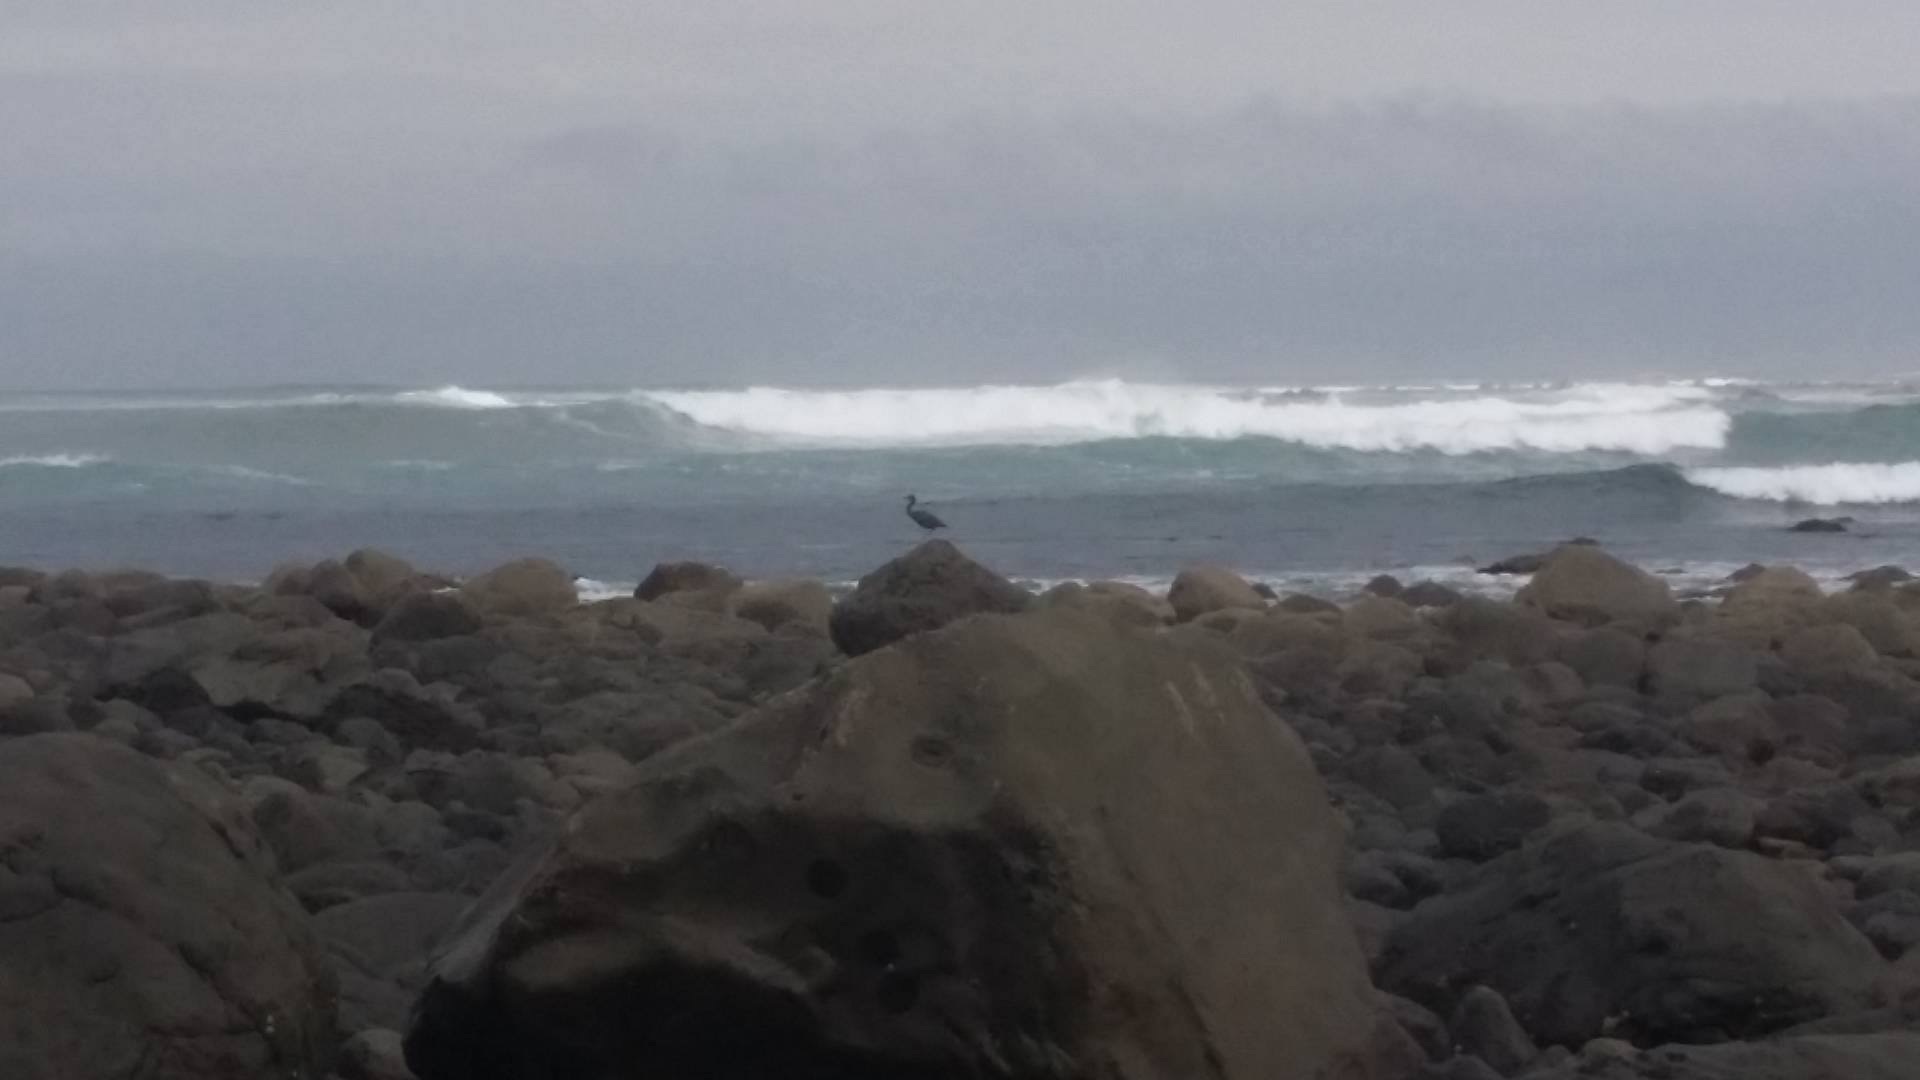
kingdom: Animalia
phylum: Chordata
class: Aves
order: Pelecaniformes
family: Ardeidae
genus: Egretta
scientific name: Egretta sacra
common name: Pacific reef heron
